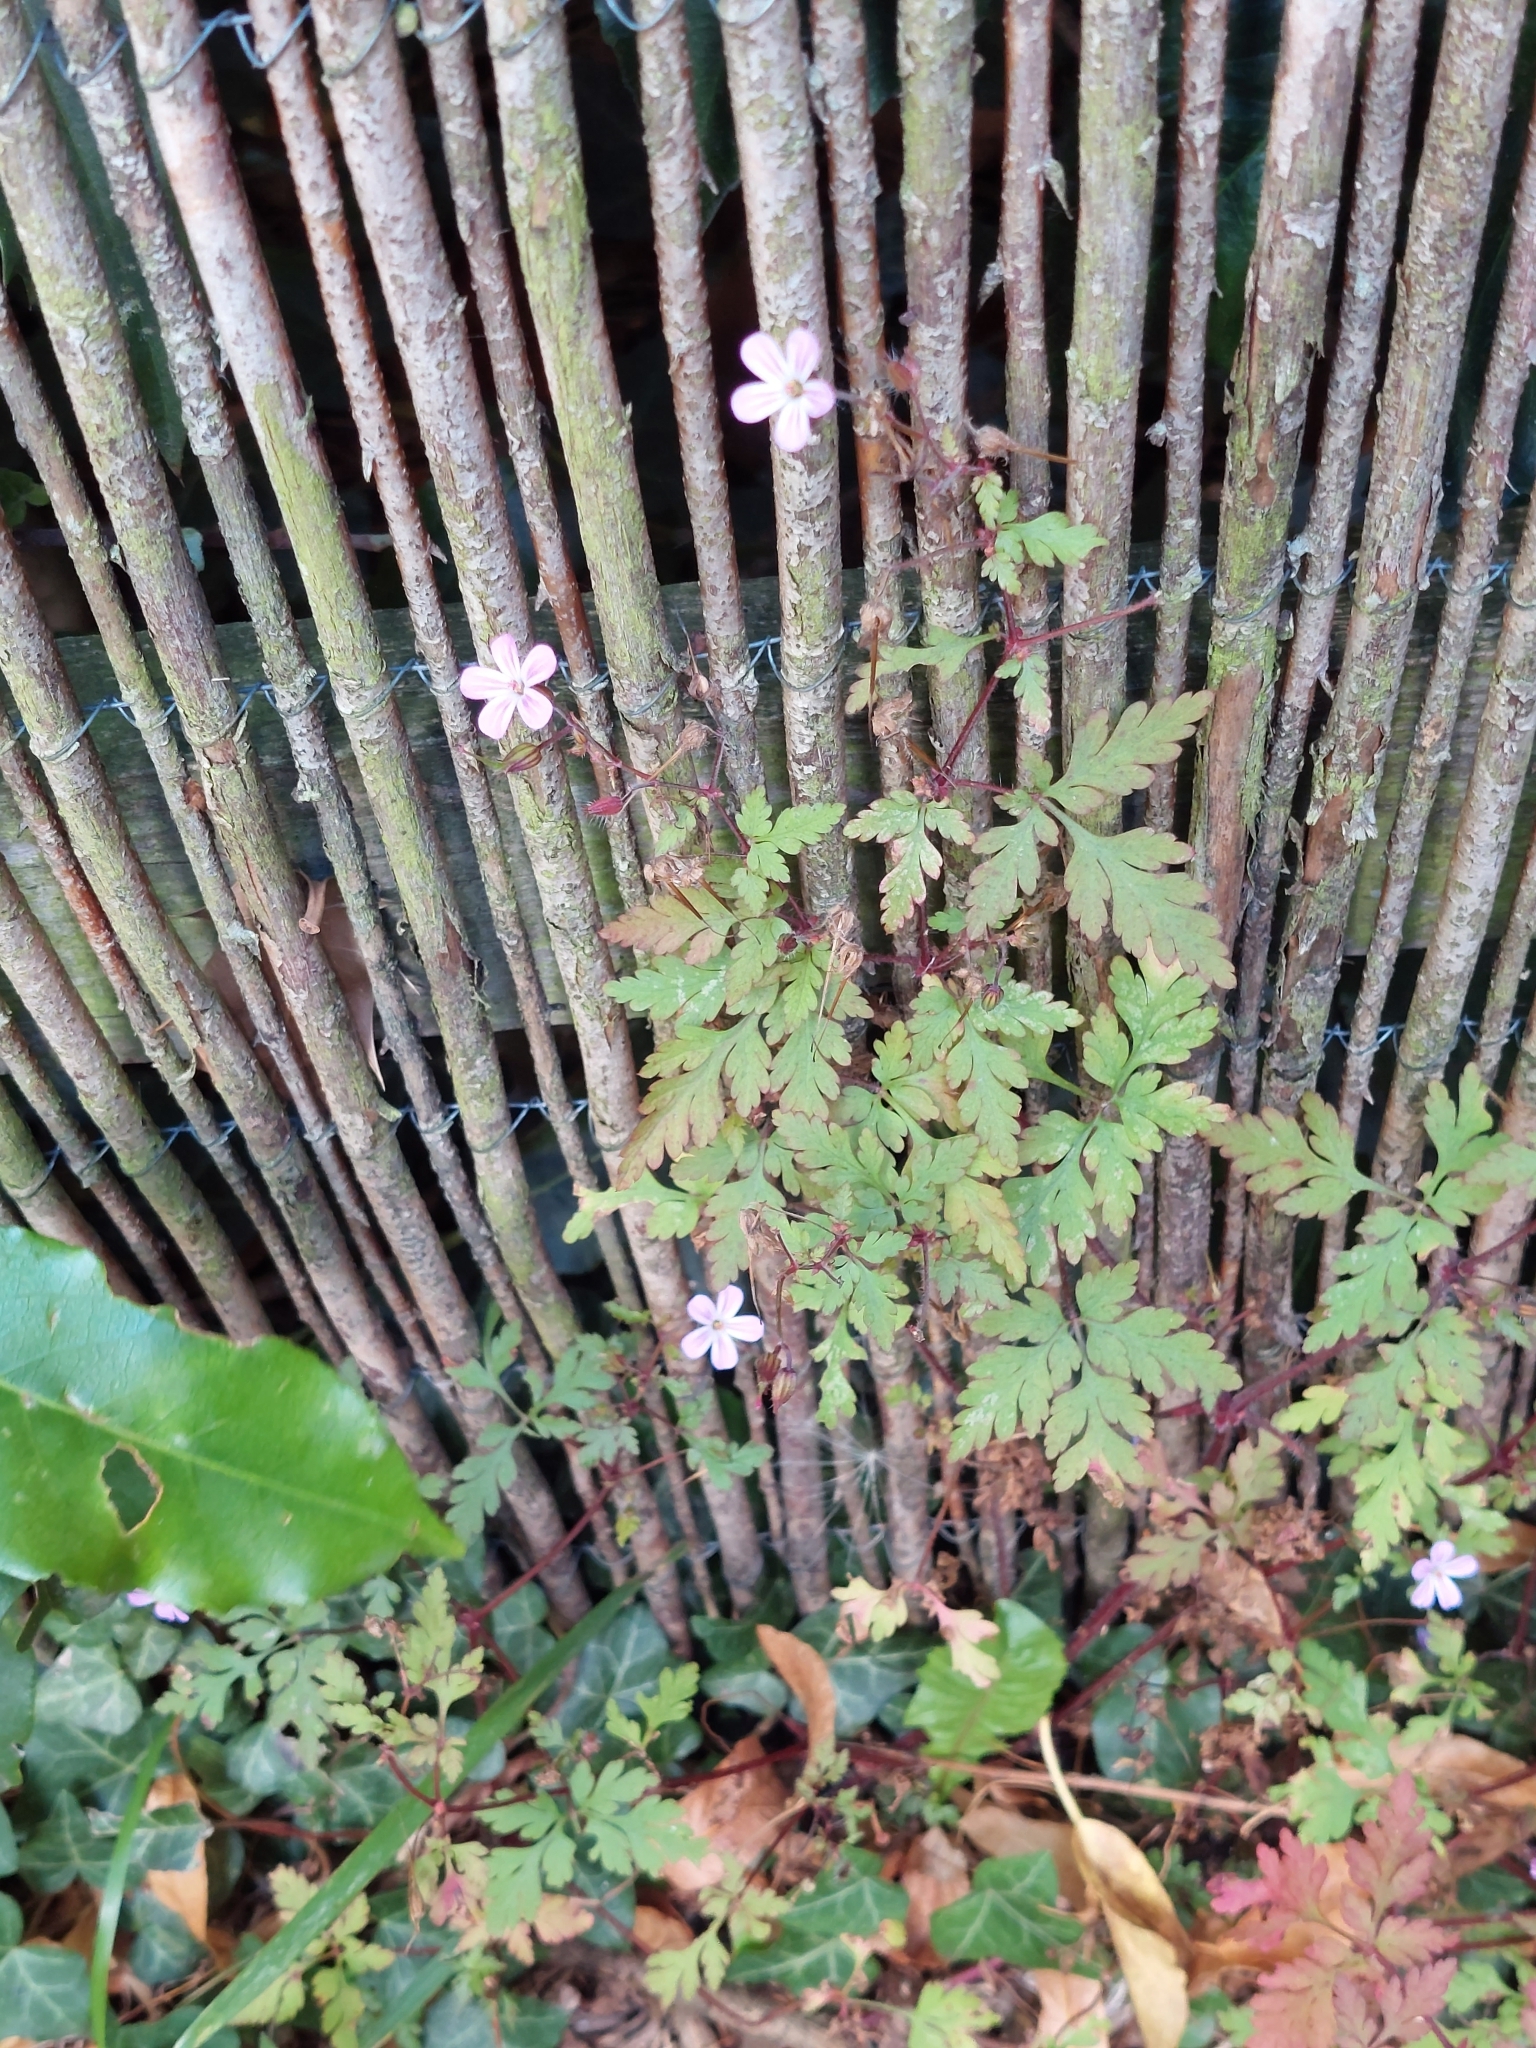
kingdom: Plantae
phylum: Tracheophyta
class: Magnoliopsida
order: Geraniales
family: Geraniaceae
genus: Geranium
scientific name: Geranium robertianum
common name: Herb-robert
